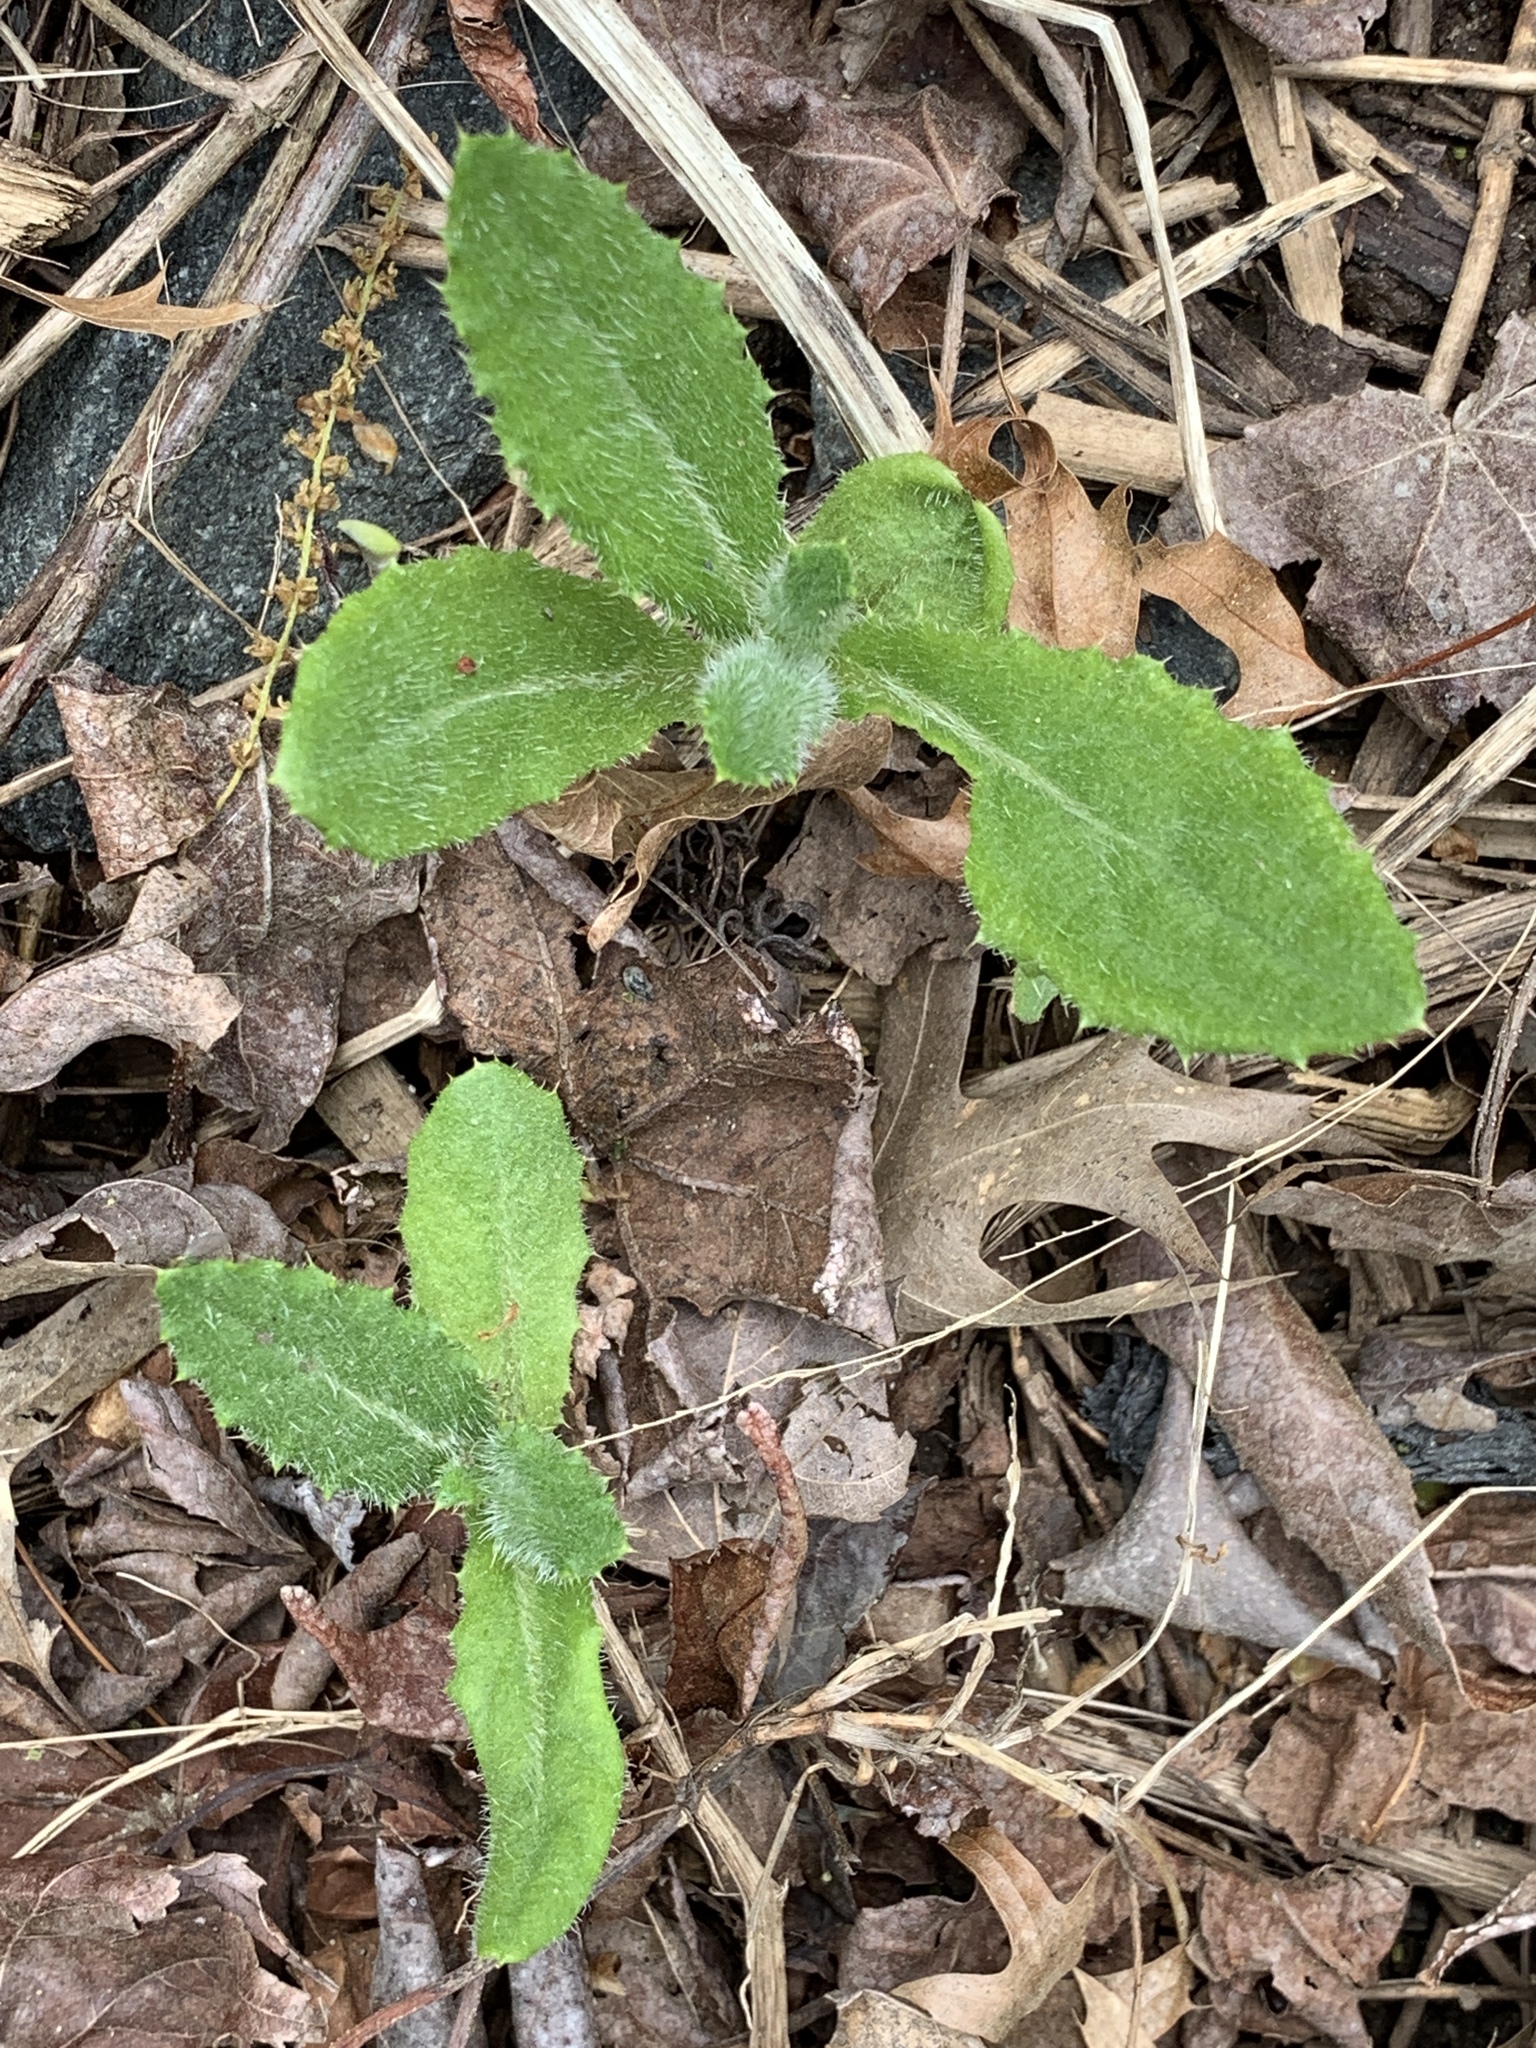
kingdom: Plantae
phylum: Tracheophyta
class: Magnoliopsida
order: Asterales
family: Asteraceae
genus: Cirsium
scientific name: Cirsium arvense
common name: Creeping thistle
